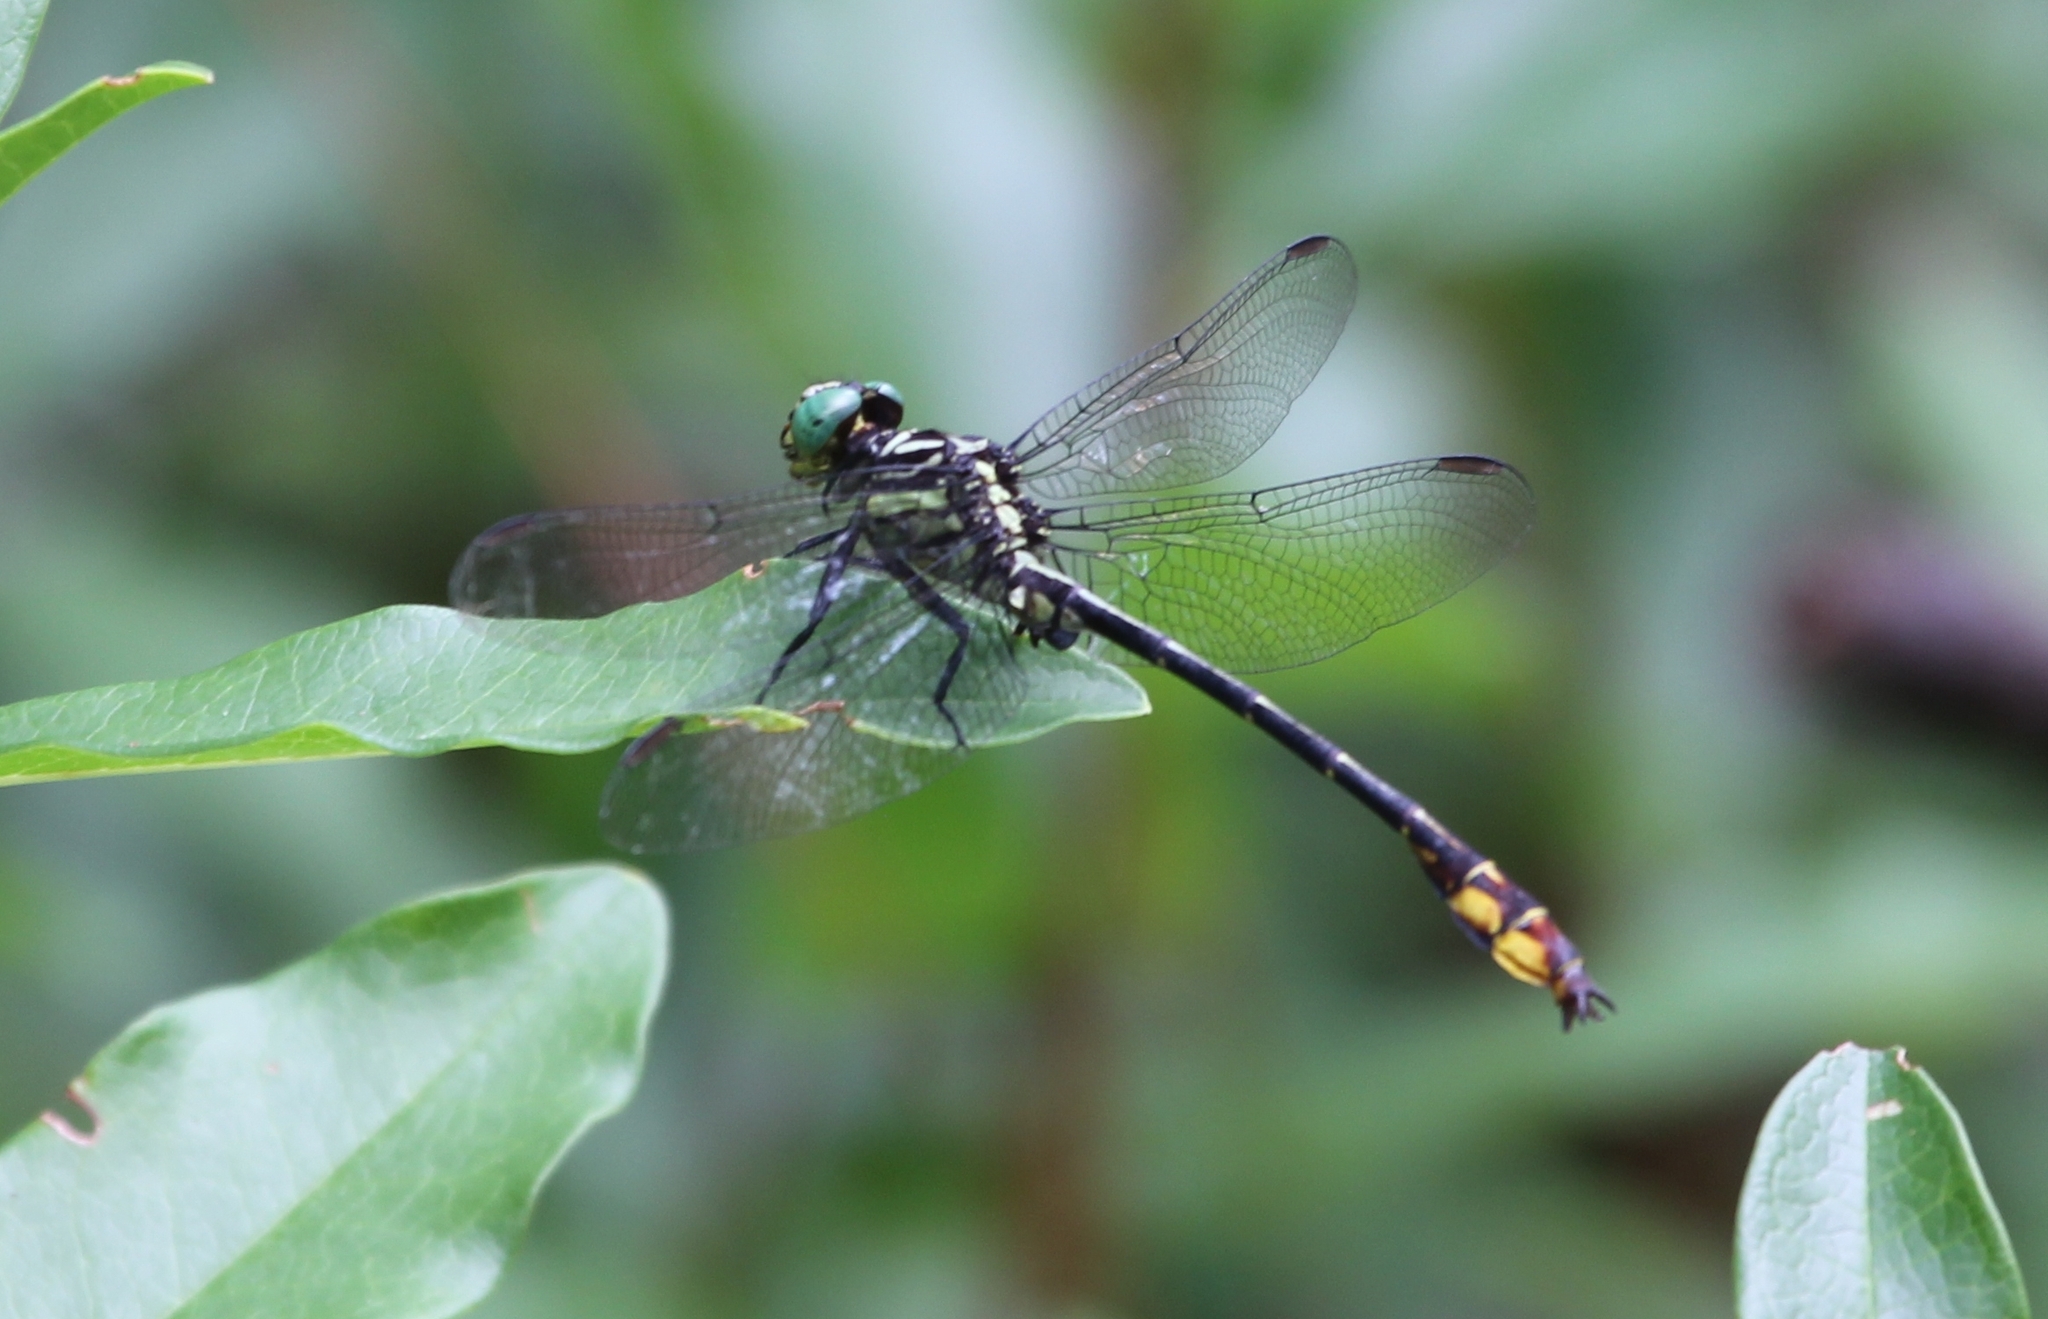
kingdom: Animalia
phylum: Arthropoda
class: Insecta
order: Odonata
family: Gomphidae
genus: Stylurus
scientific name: Stylurus laurae
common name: Laura's clubtail
